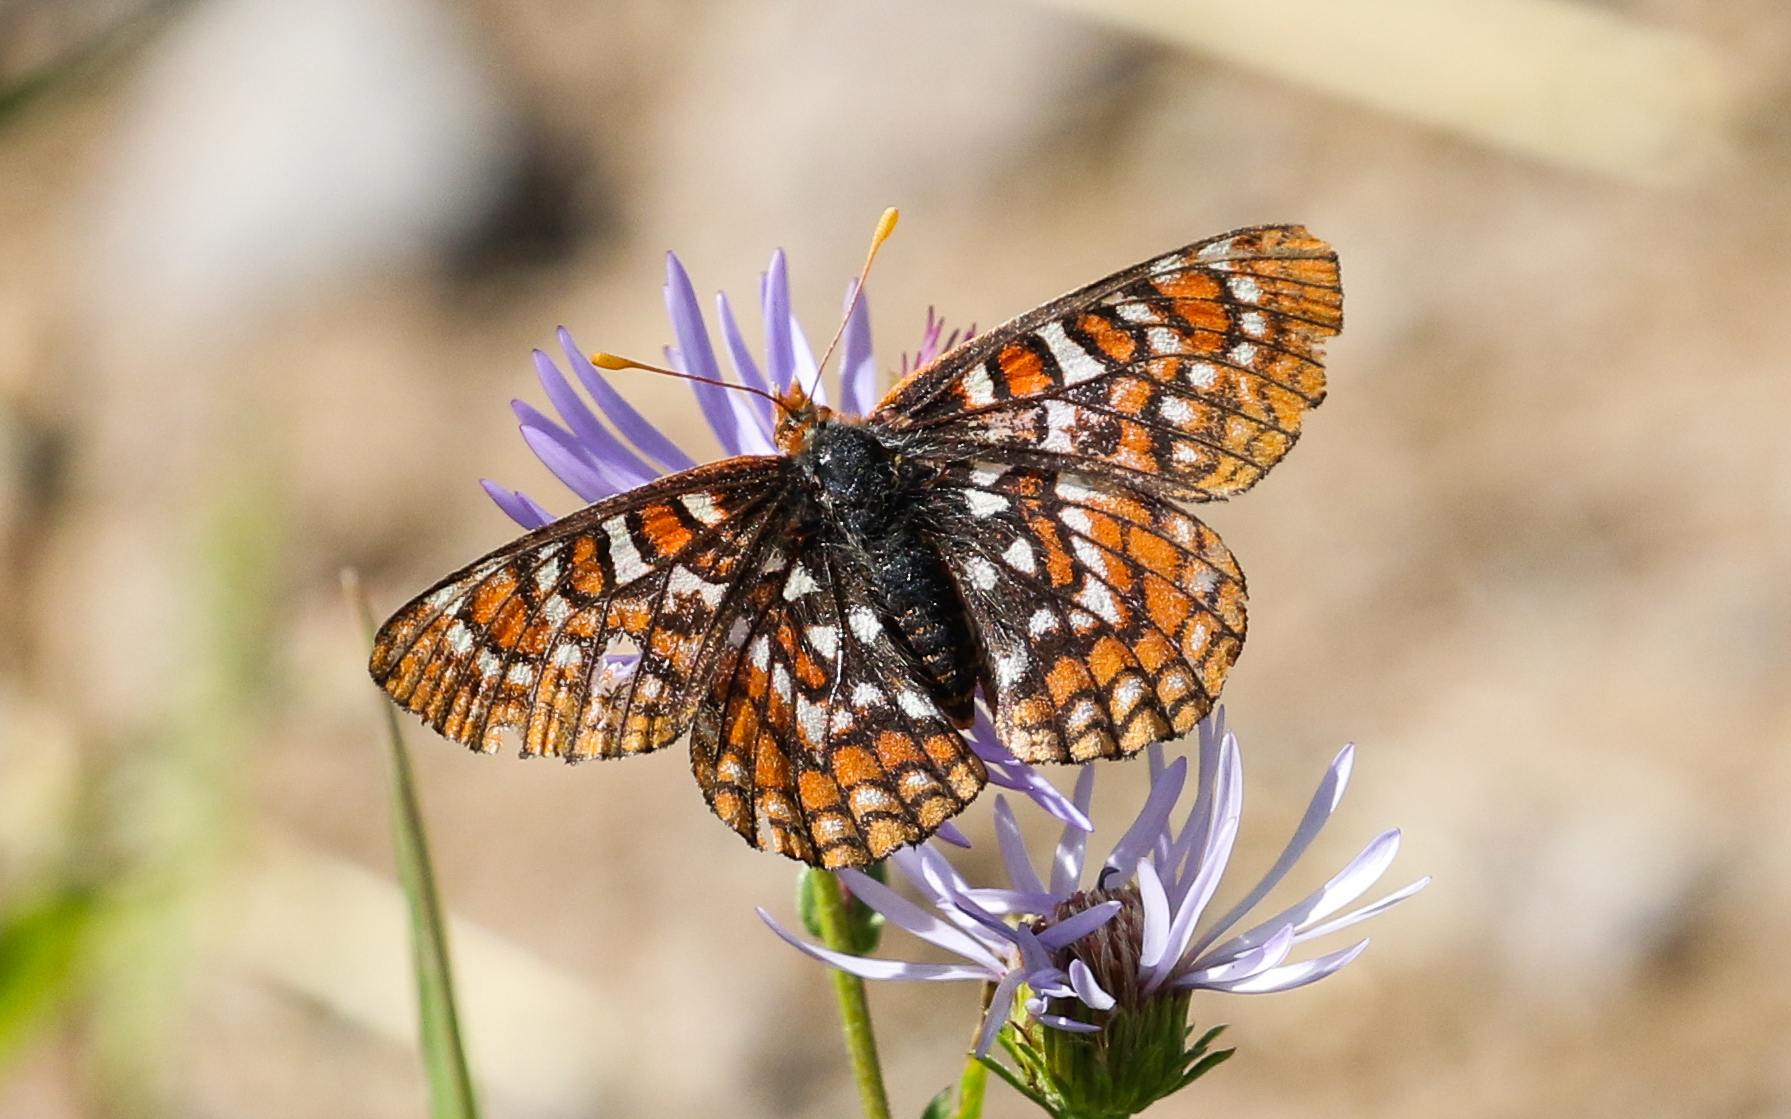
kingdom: Animalia
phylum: Arthropoda
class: Insecta
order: Lepidoptera
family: Nymphalidae
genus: Occidryas
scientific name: Occidryas editha
